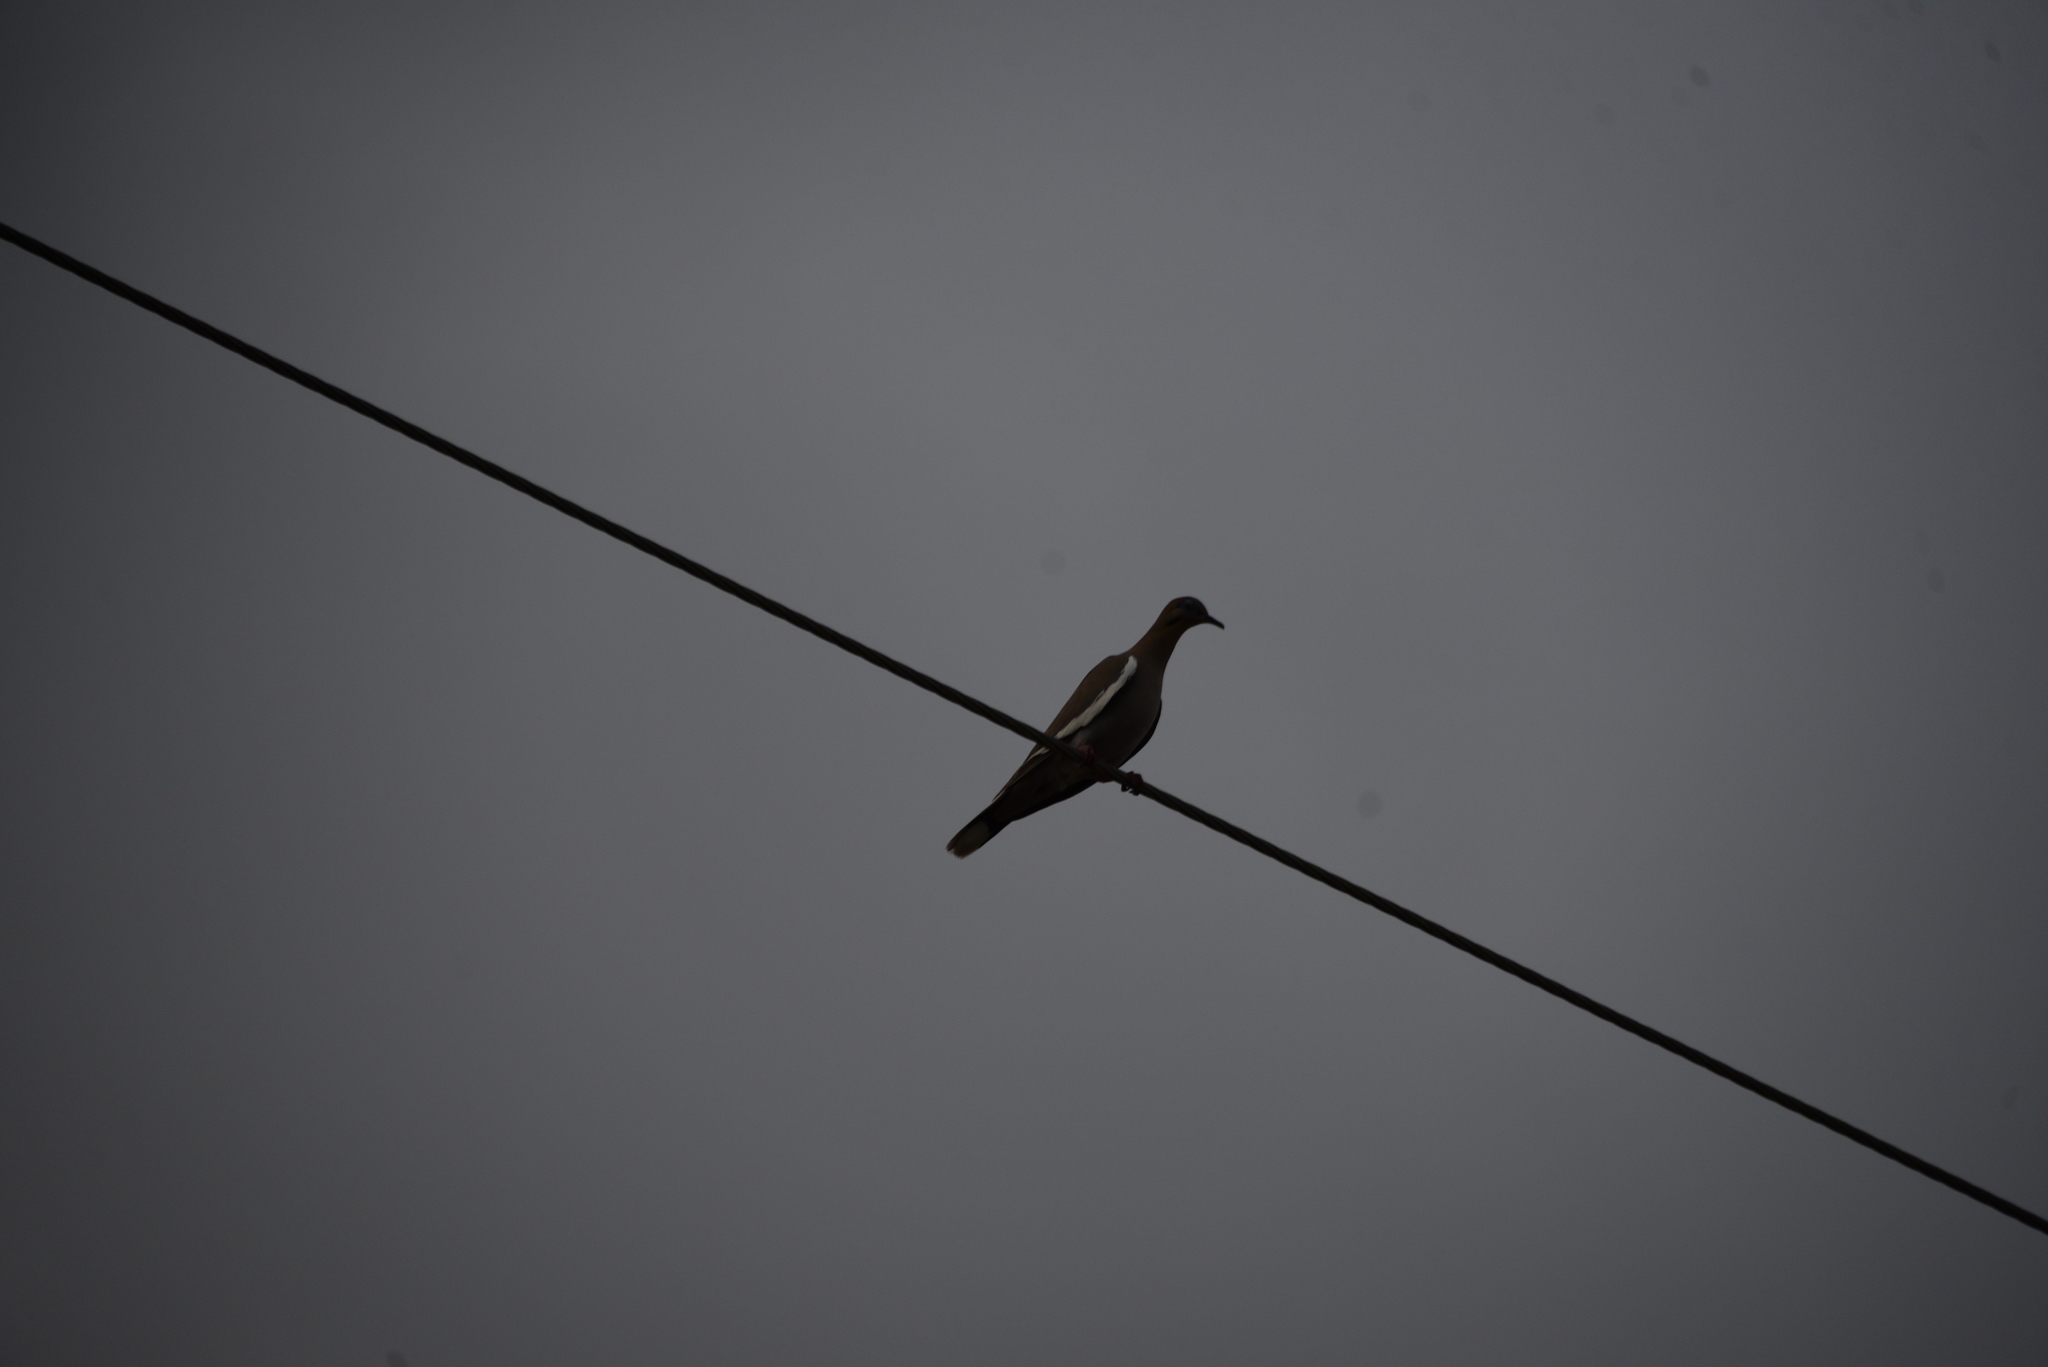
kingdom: Animalia
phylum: Chordata
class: Aves
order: Columbiformes
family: Columbidae
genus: Zenaida
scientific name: Zenaida asiatica
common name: White-winged dove
